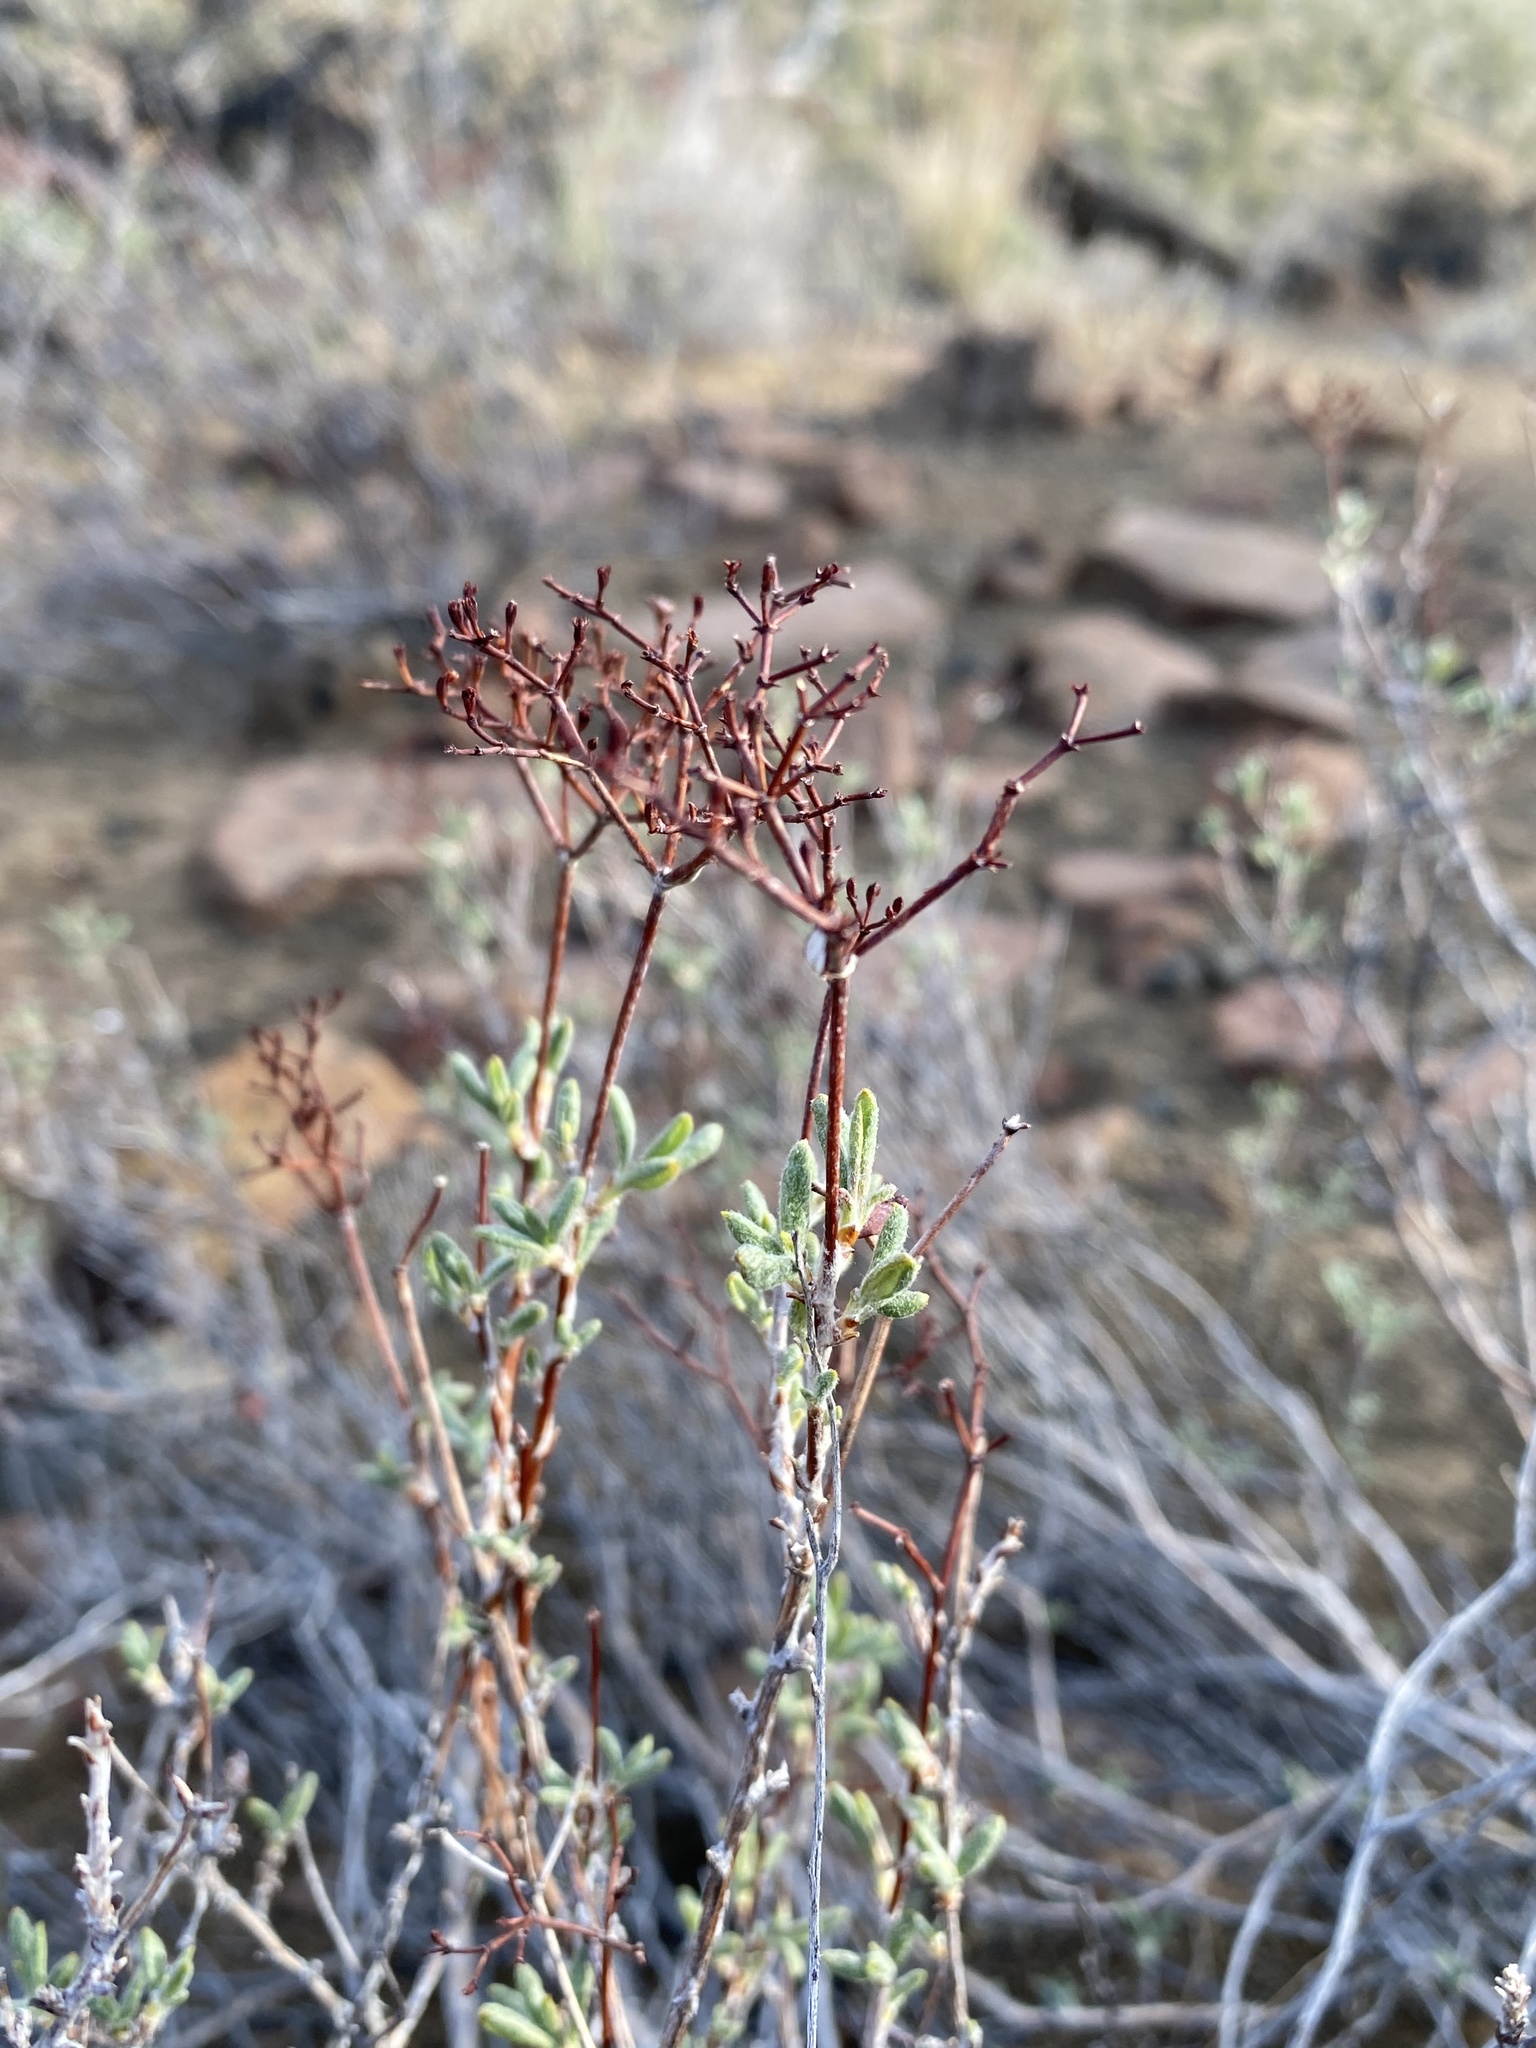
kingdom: Plantae
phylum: Tracheophyta
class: Magnoliopsida
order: Caryophyllales
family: Polygonaceae
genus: Eriogonum
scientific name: Eriogonum microtheca
